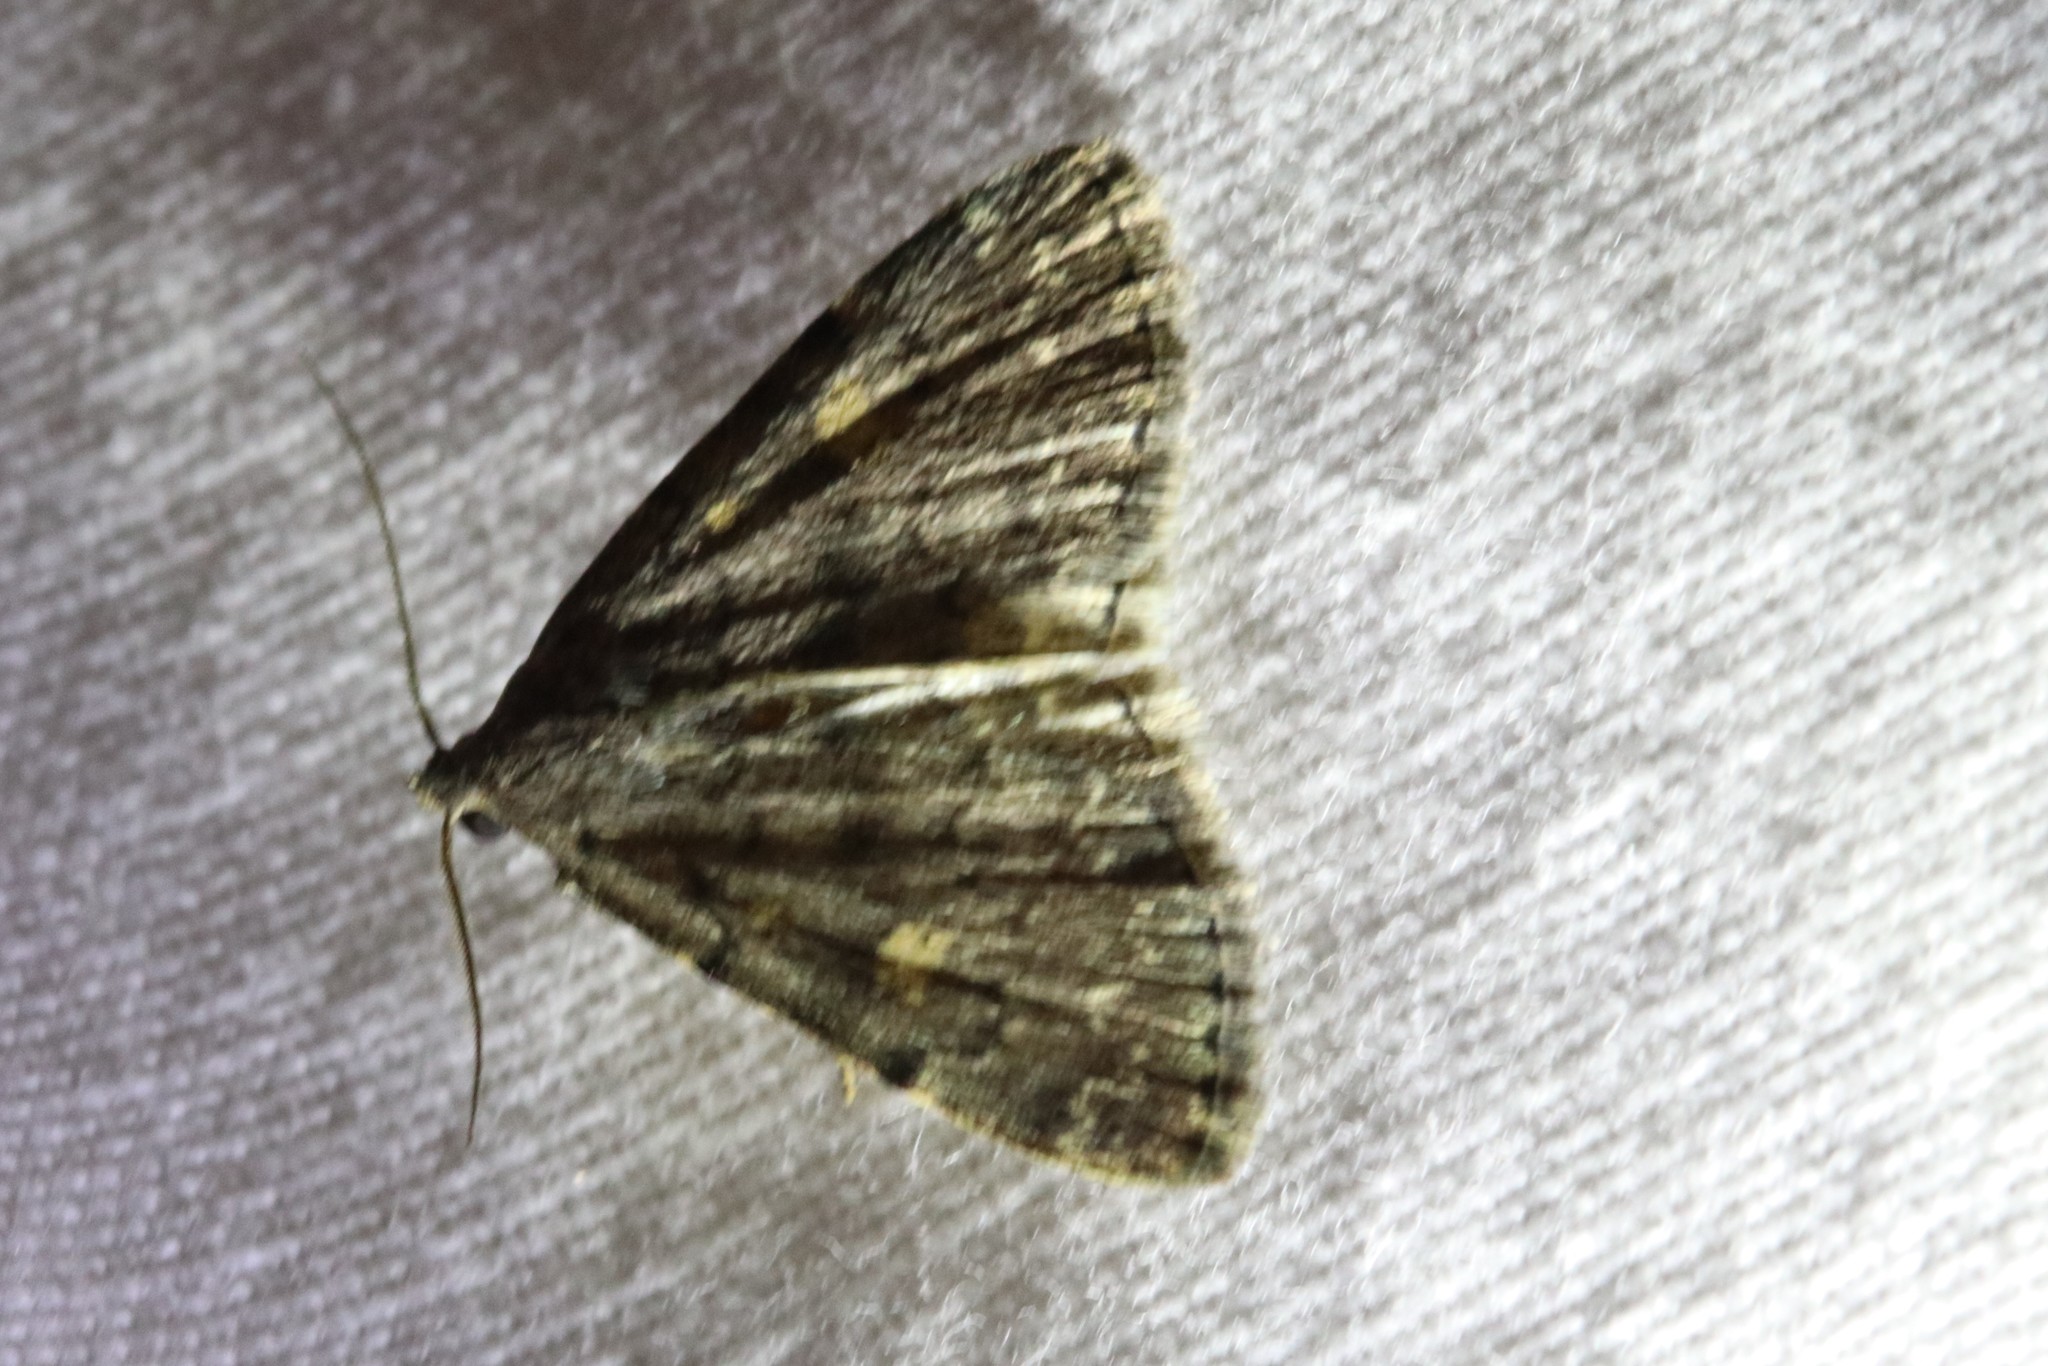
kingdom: Animalia
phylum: Arthropoda
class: Insecta
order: Lepidoptera
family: Erebidae
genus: Idia
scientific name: Idia aemula
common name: Common idia moth
